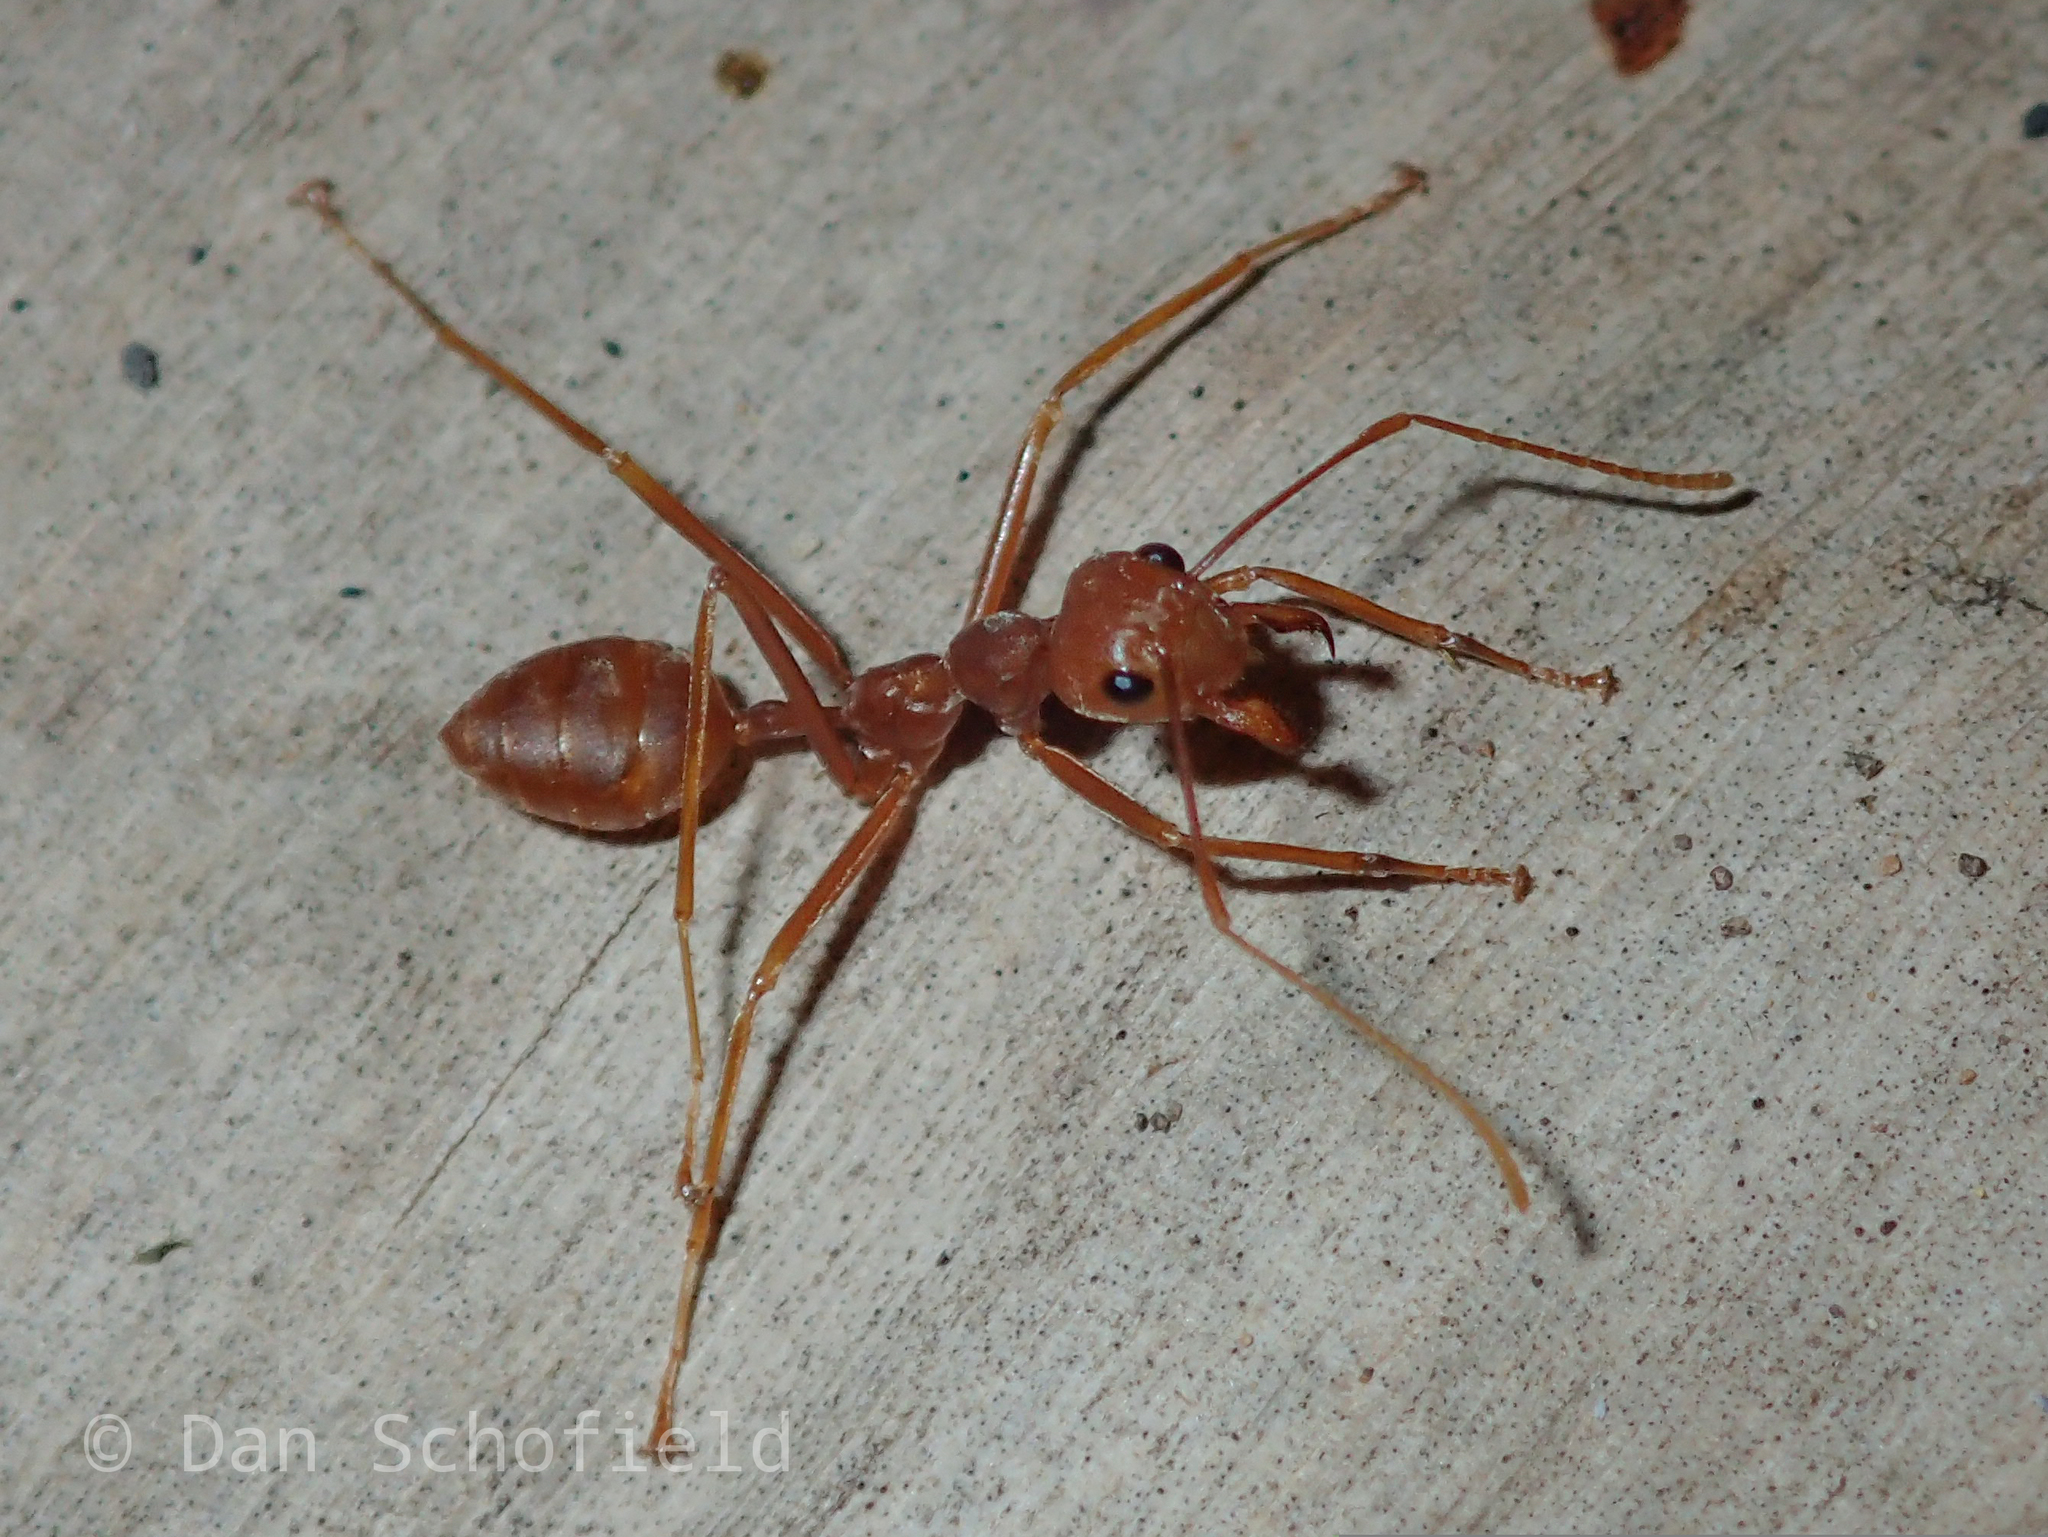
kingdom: Animalia
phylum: Arthropoda
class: Insecta
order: Hymenoptera
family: Formicidae
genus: Oecophylla
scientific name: Oecophylla smaragdina
